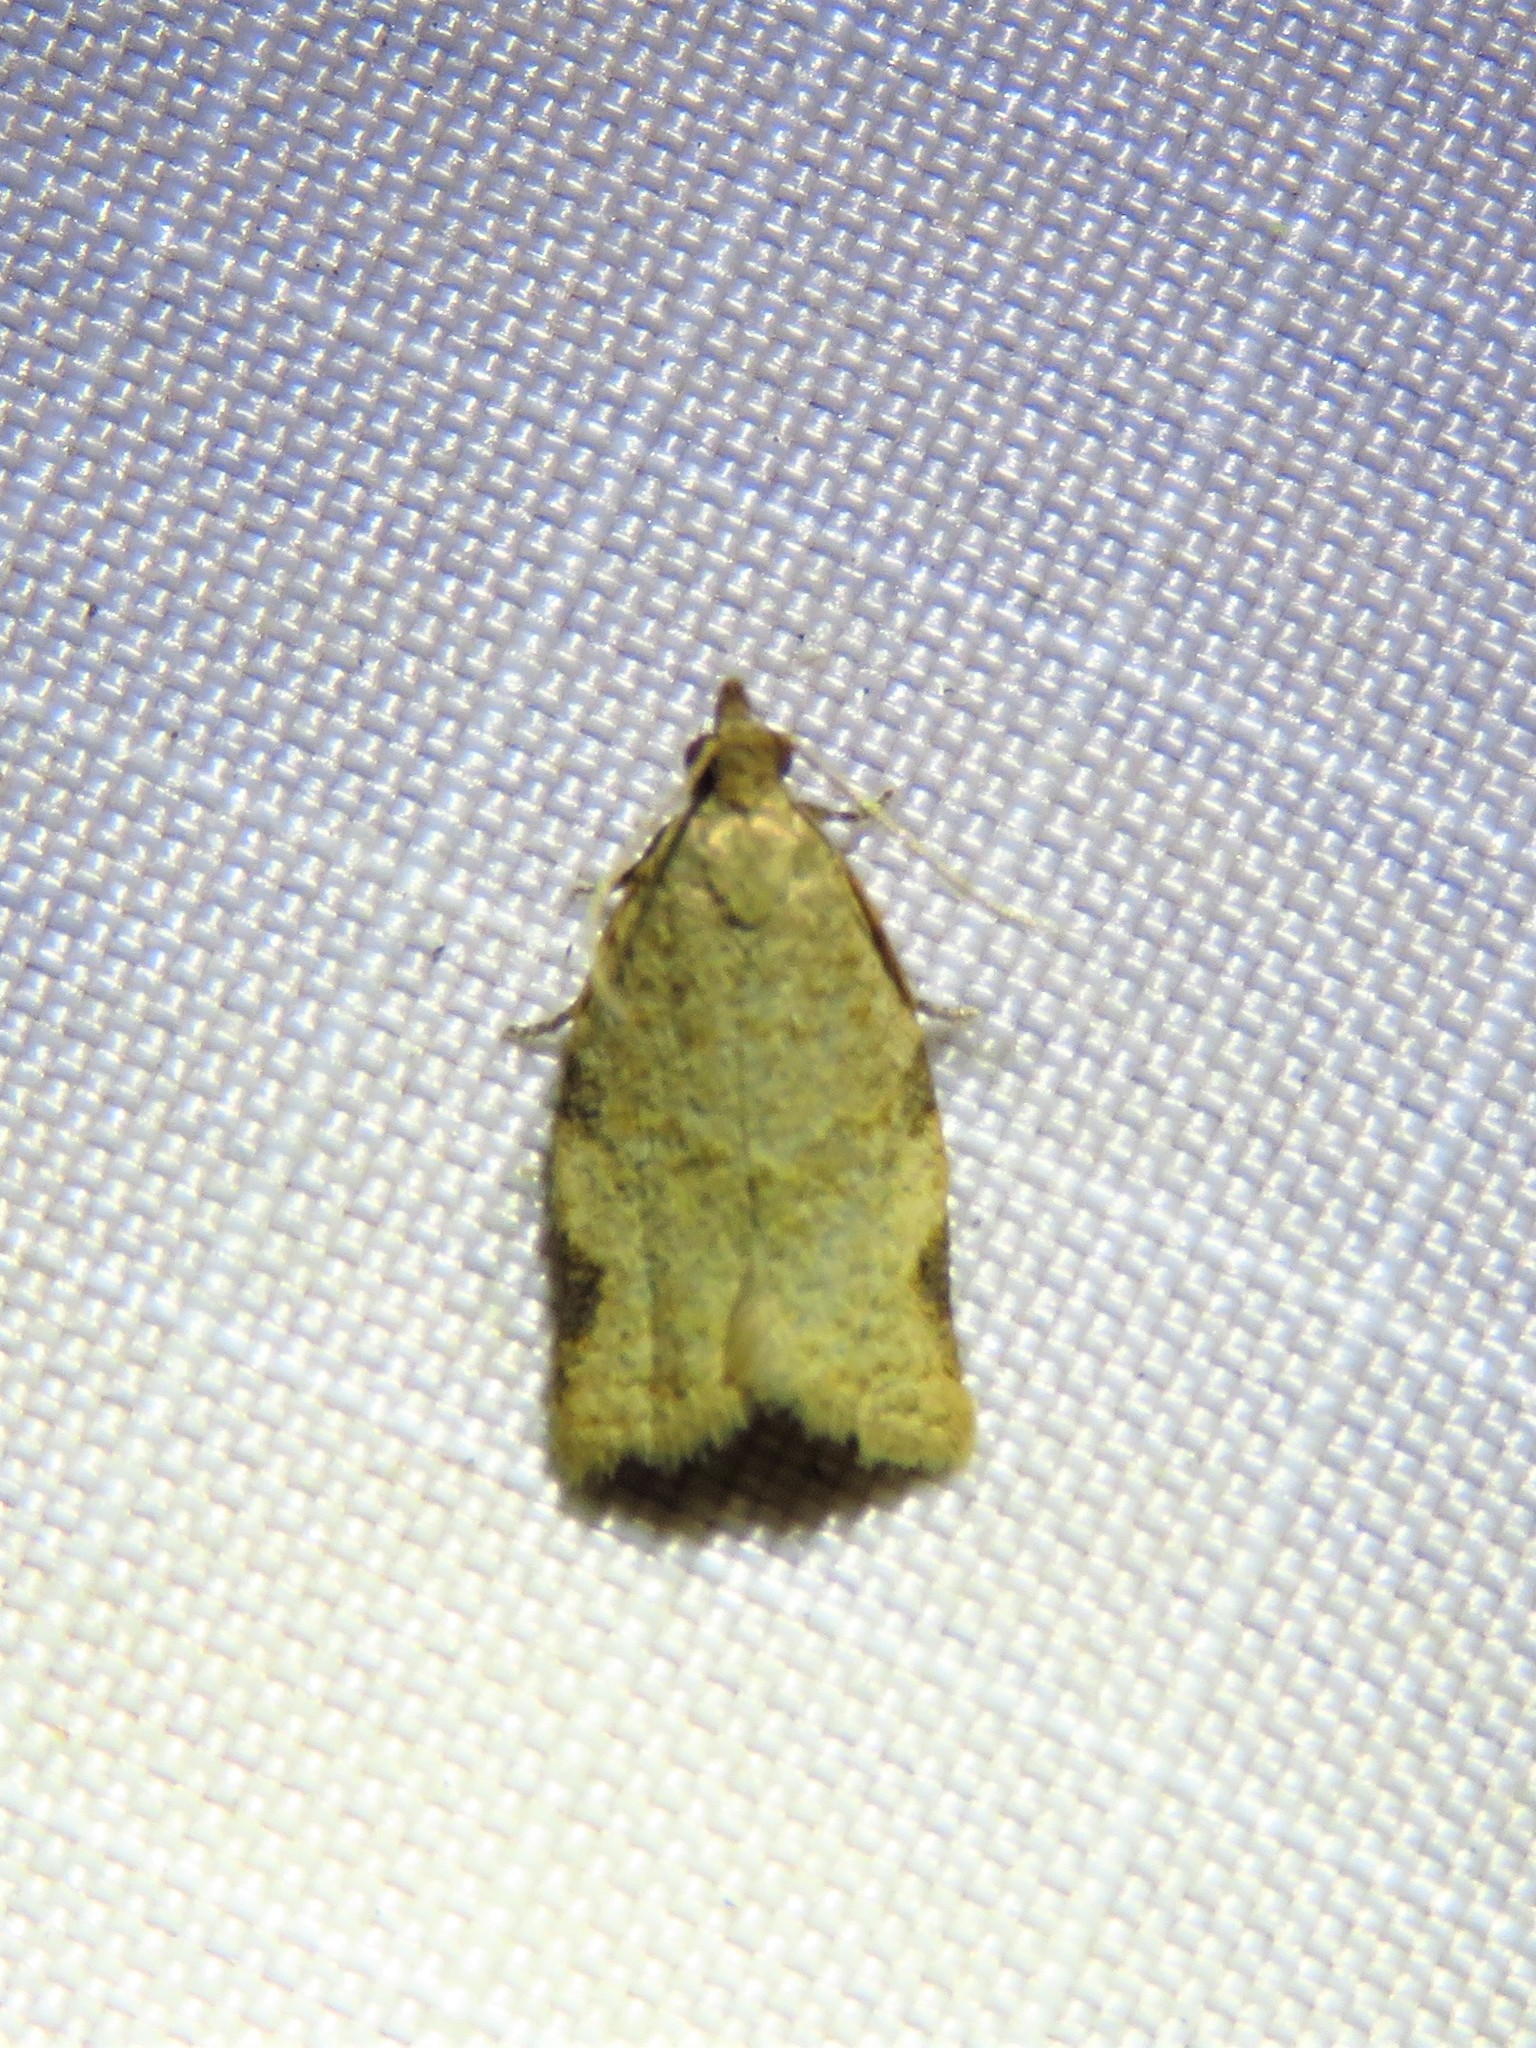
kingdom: Animalia
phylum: Arthropoda
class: Insecta
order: Lepidoptera
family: Tortricidae
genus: Clepsis
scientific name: Clepsis virescana
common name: Greenish apple moth
